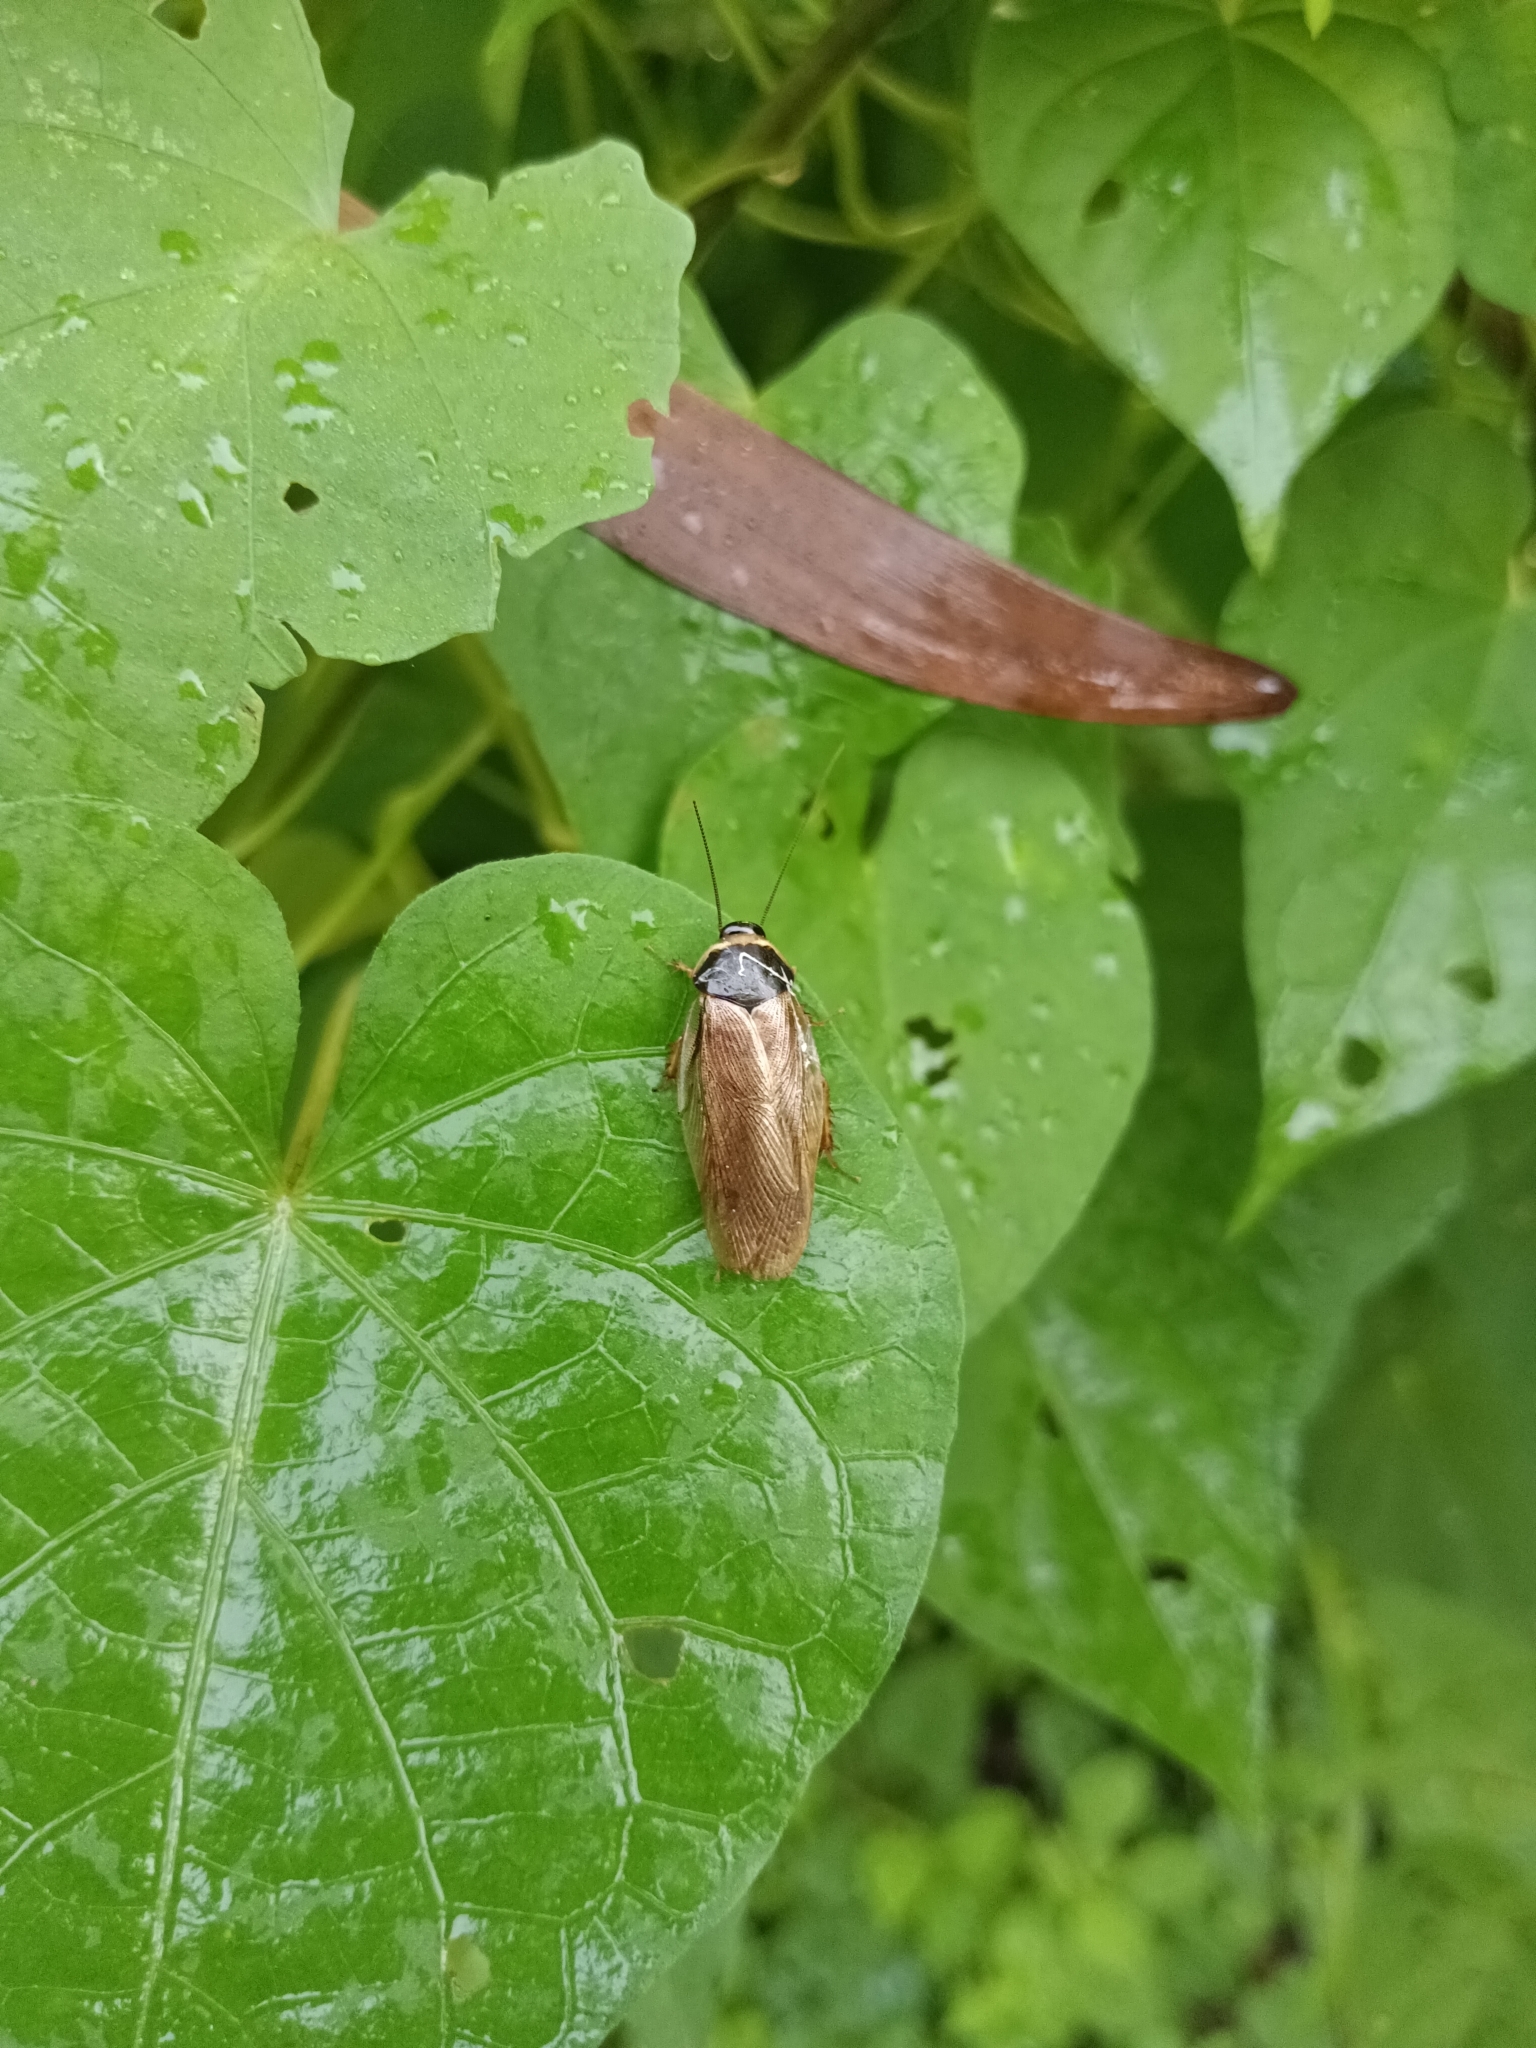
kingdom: Animalia
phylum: Arthropoda
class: Insecta
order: Blattodea
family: Blaberidae
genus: Pycnoscelus
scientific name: Pycnoscelus indicus
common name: Burrowing cockroach
